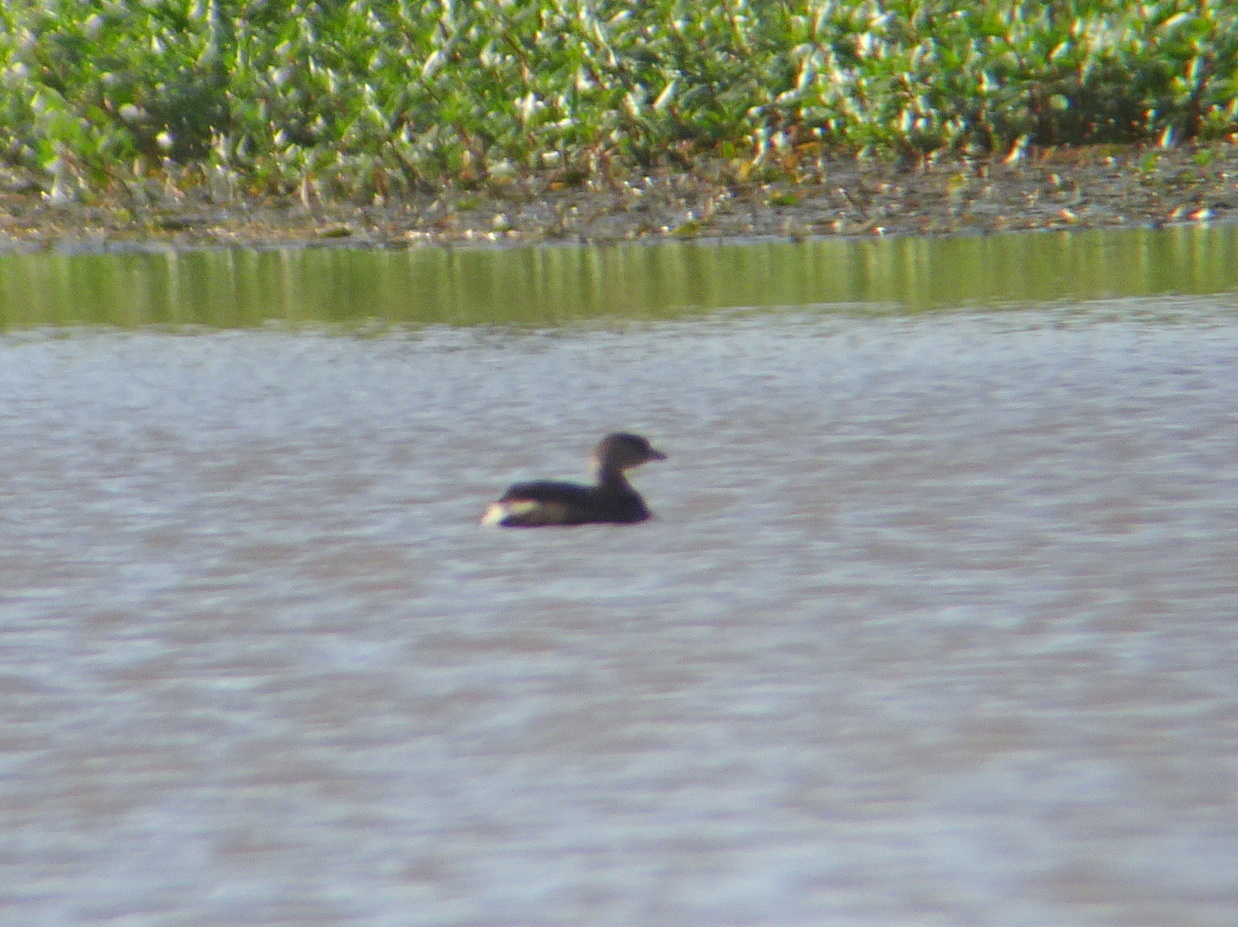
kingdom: Animalia
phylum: Chordata
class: Aves
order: Podicipediformes
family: Podicipedidae
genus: Podilymbus
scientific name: Podilymbus podiceps
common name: Pied-billed grebe
